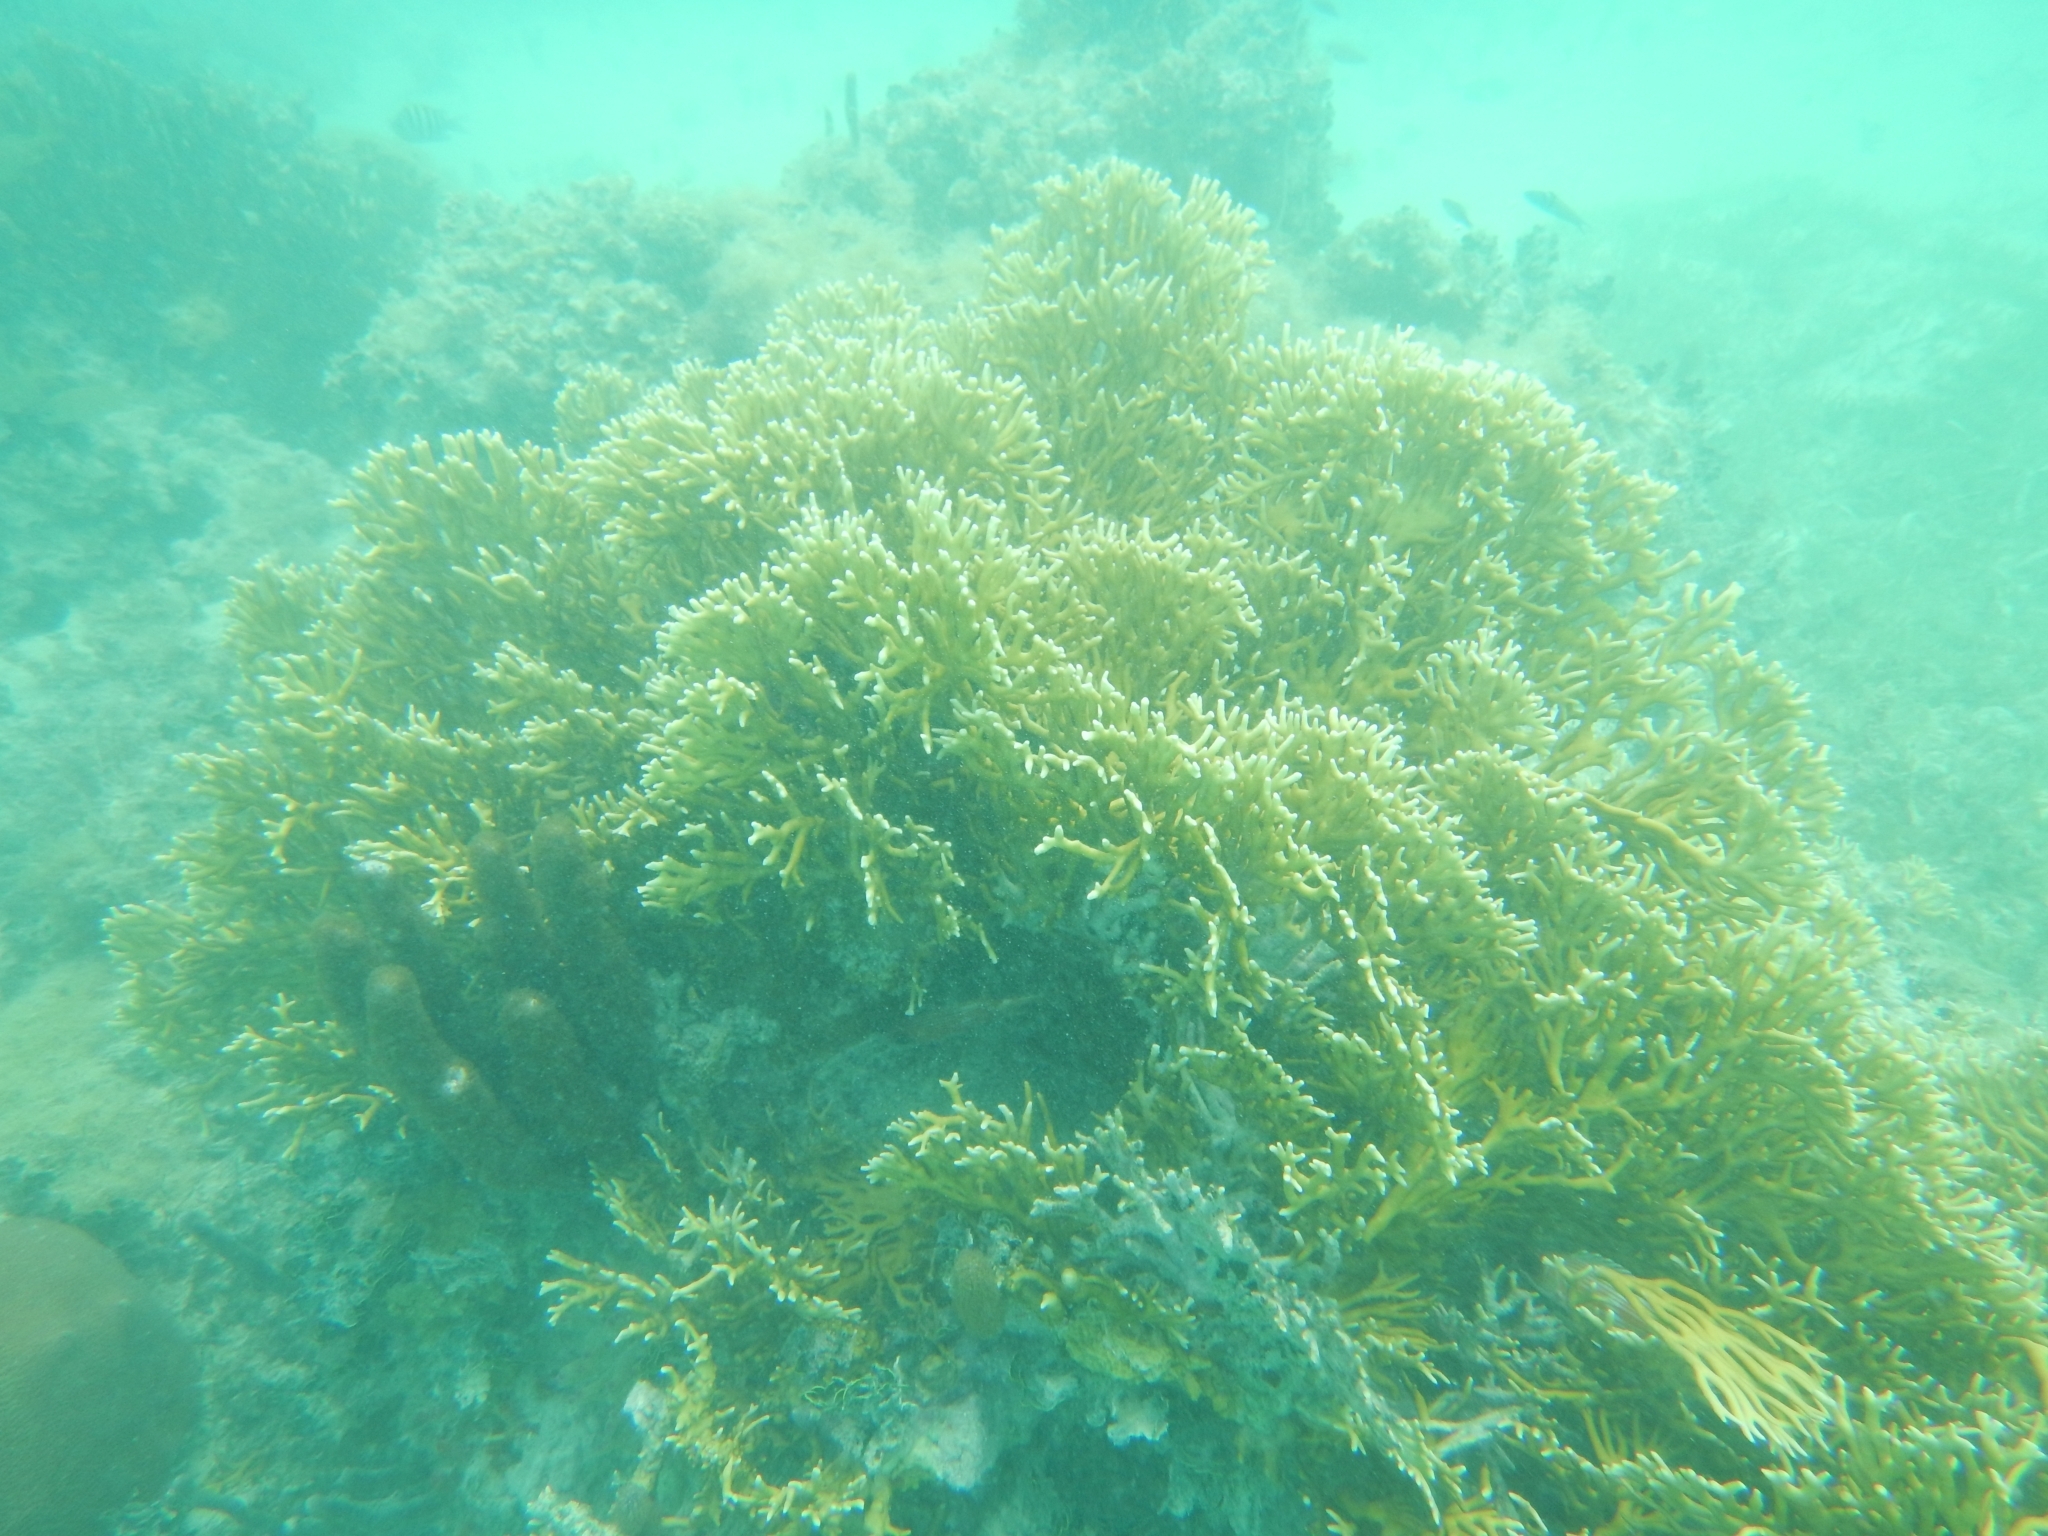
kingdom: Animalia
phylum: Cnidaria
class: Hydrozoa
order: Anthoathecata
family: Milleporidae
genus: Millepora
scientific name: Millepora alcicornis
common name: Branching fire coral
